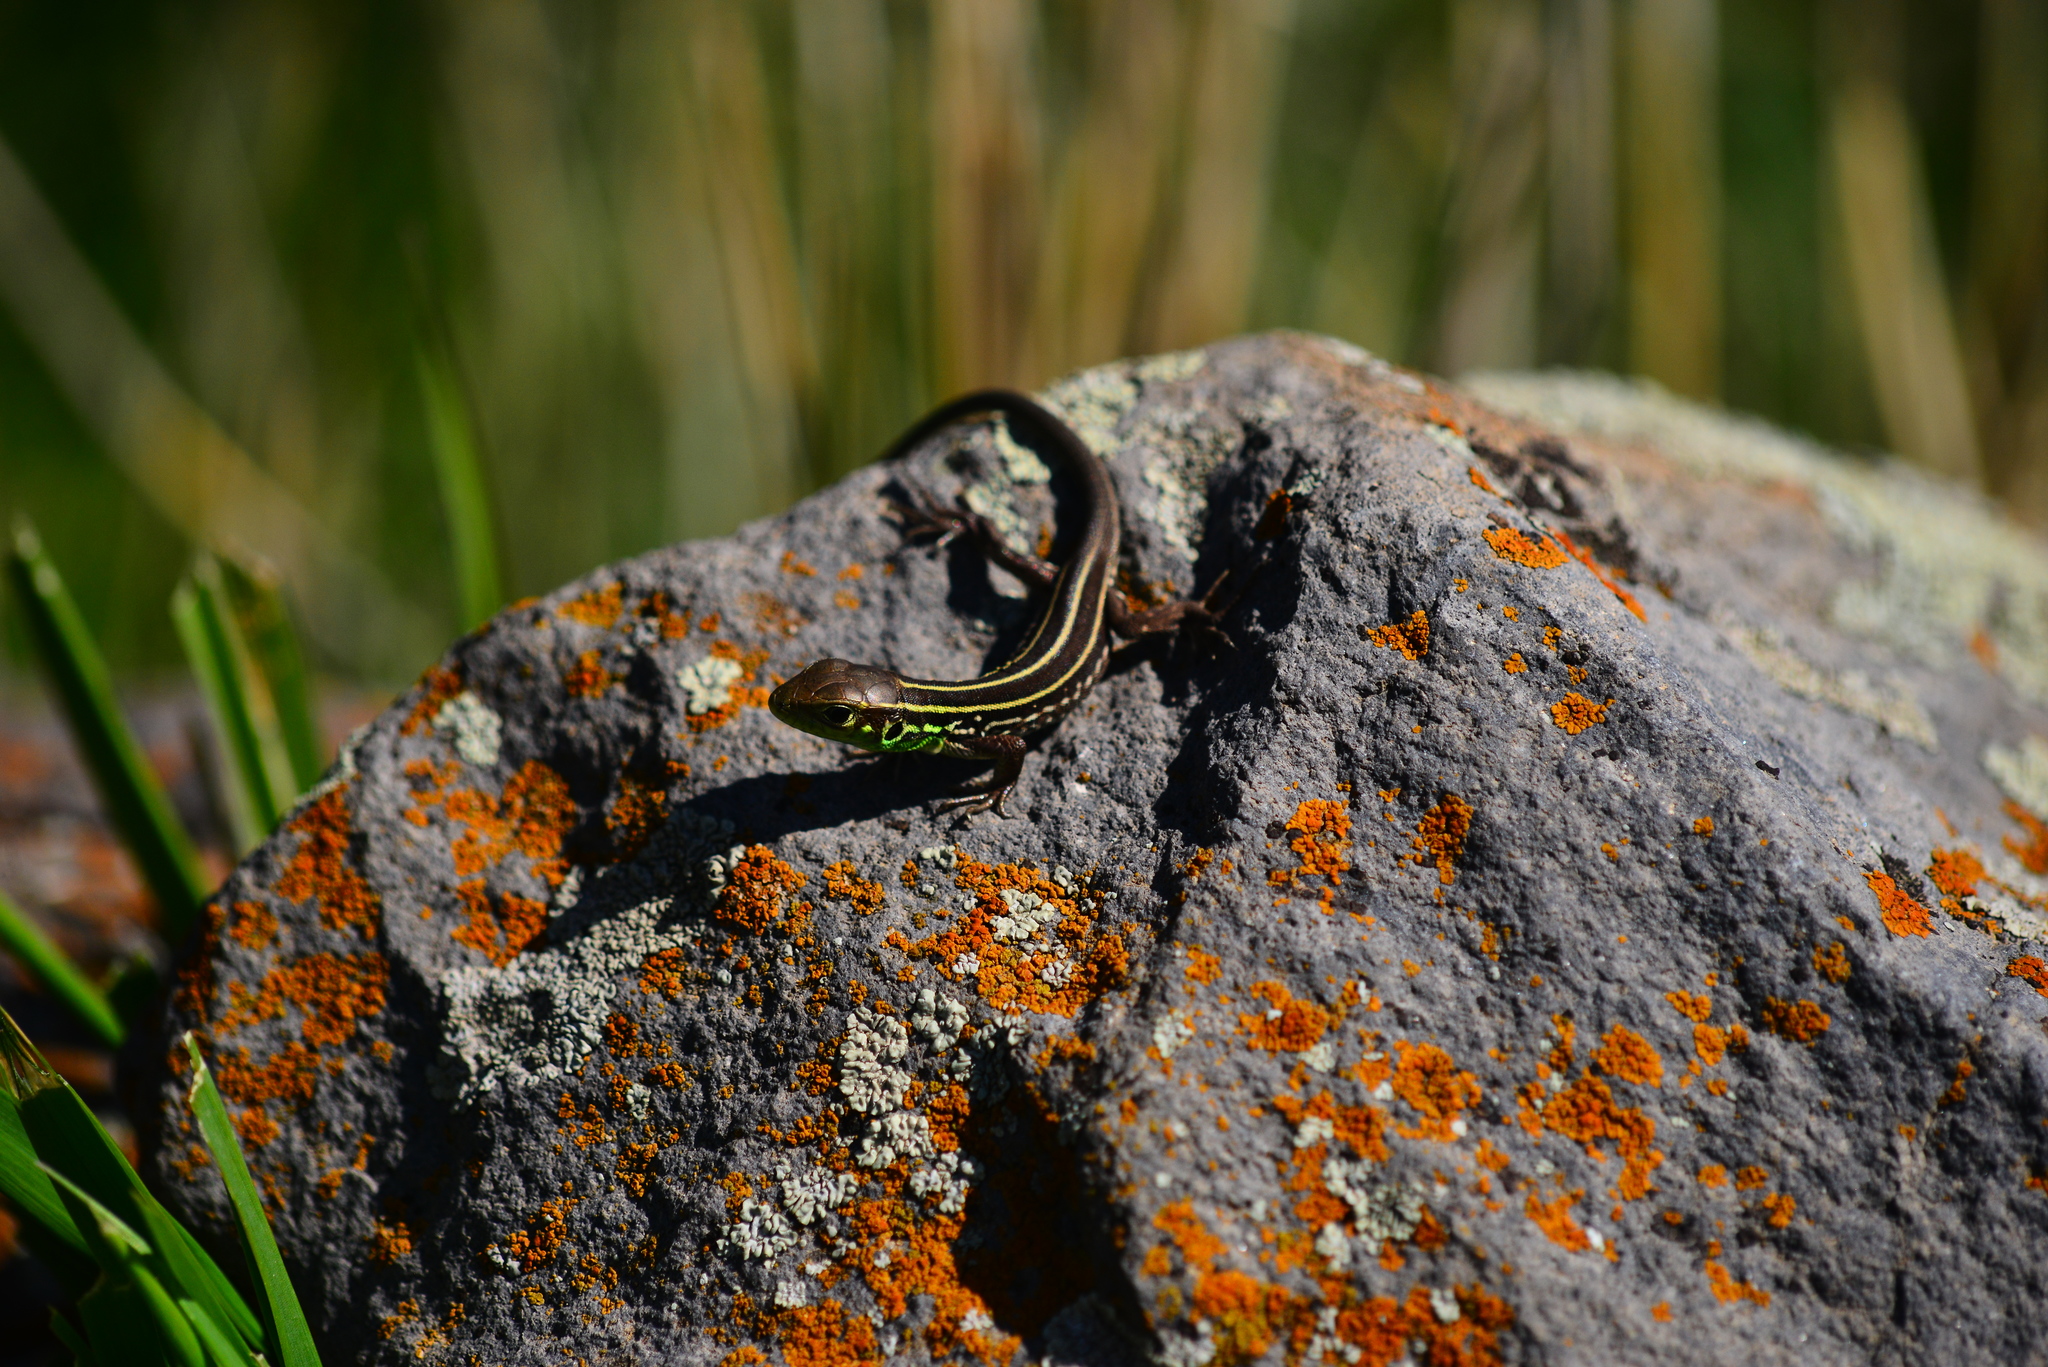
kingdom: Animalia
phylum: Chordata
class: Squamata
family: Lacertidae
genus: Lacerta
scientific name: Lacerta media
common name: Medium lizard
